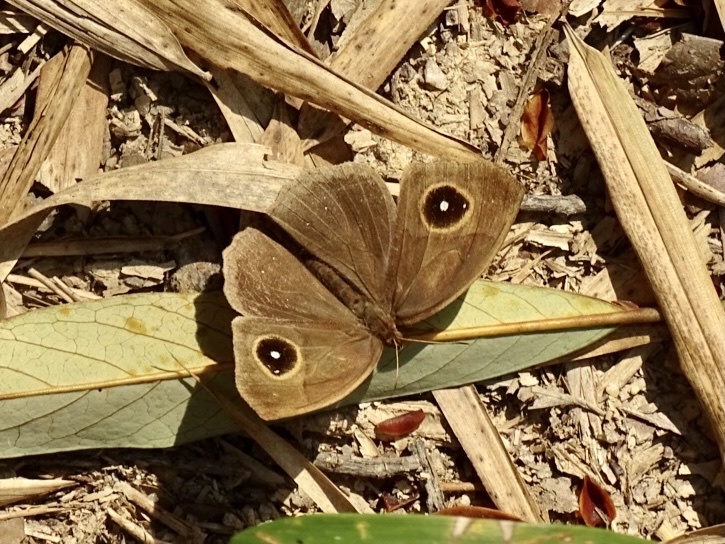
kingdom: Animalia
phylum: Arthropoda
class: Insecta
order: Lepidoptera
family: Nymphalidae
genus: Mycalesis
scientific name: Mycalesis horsfieldii
